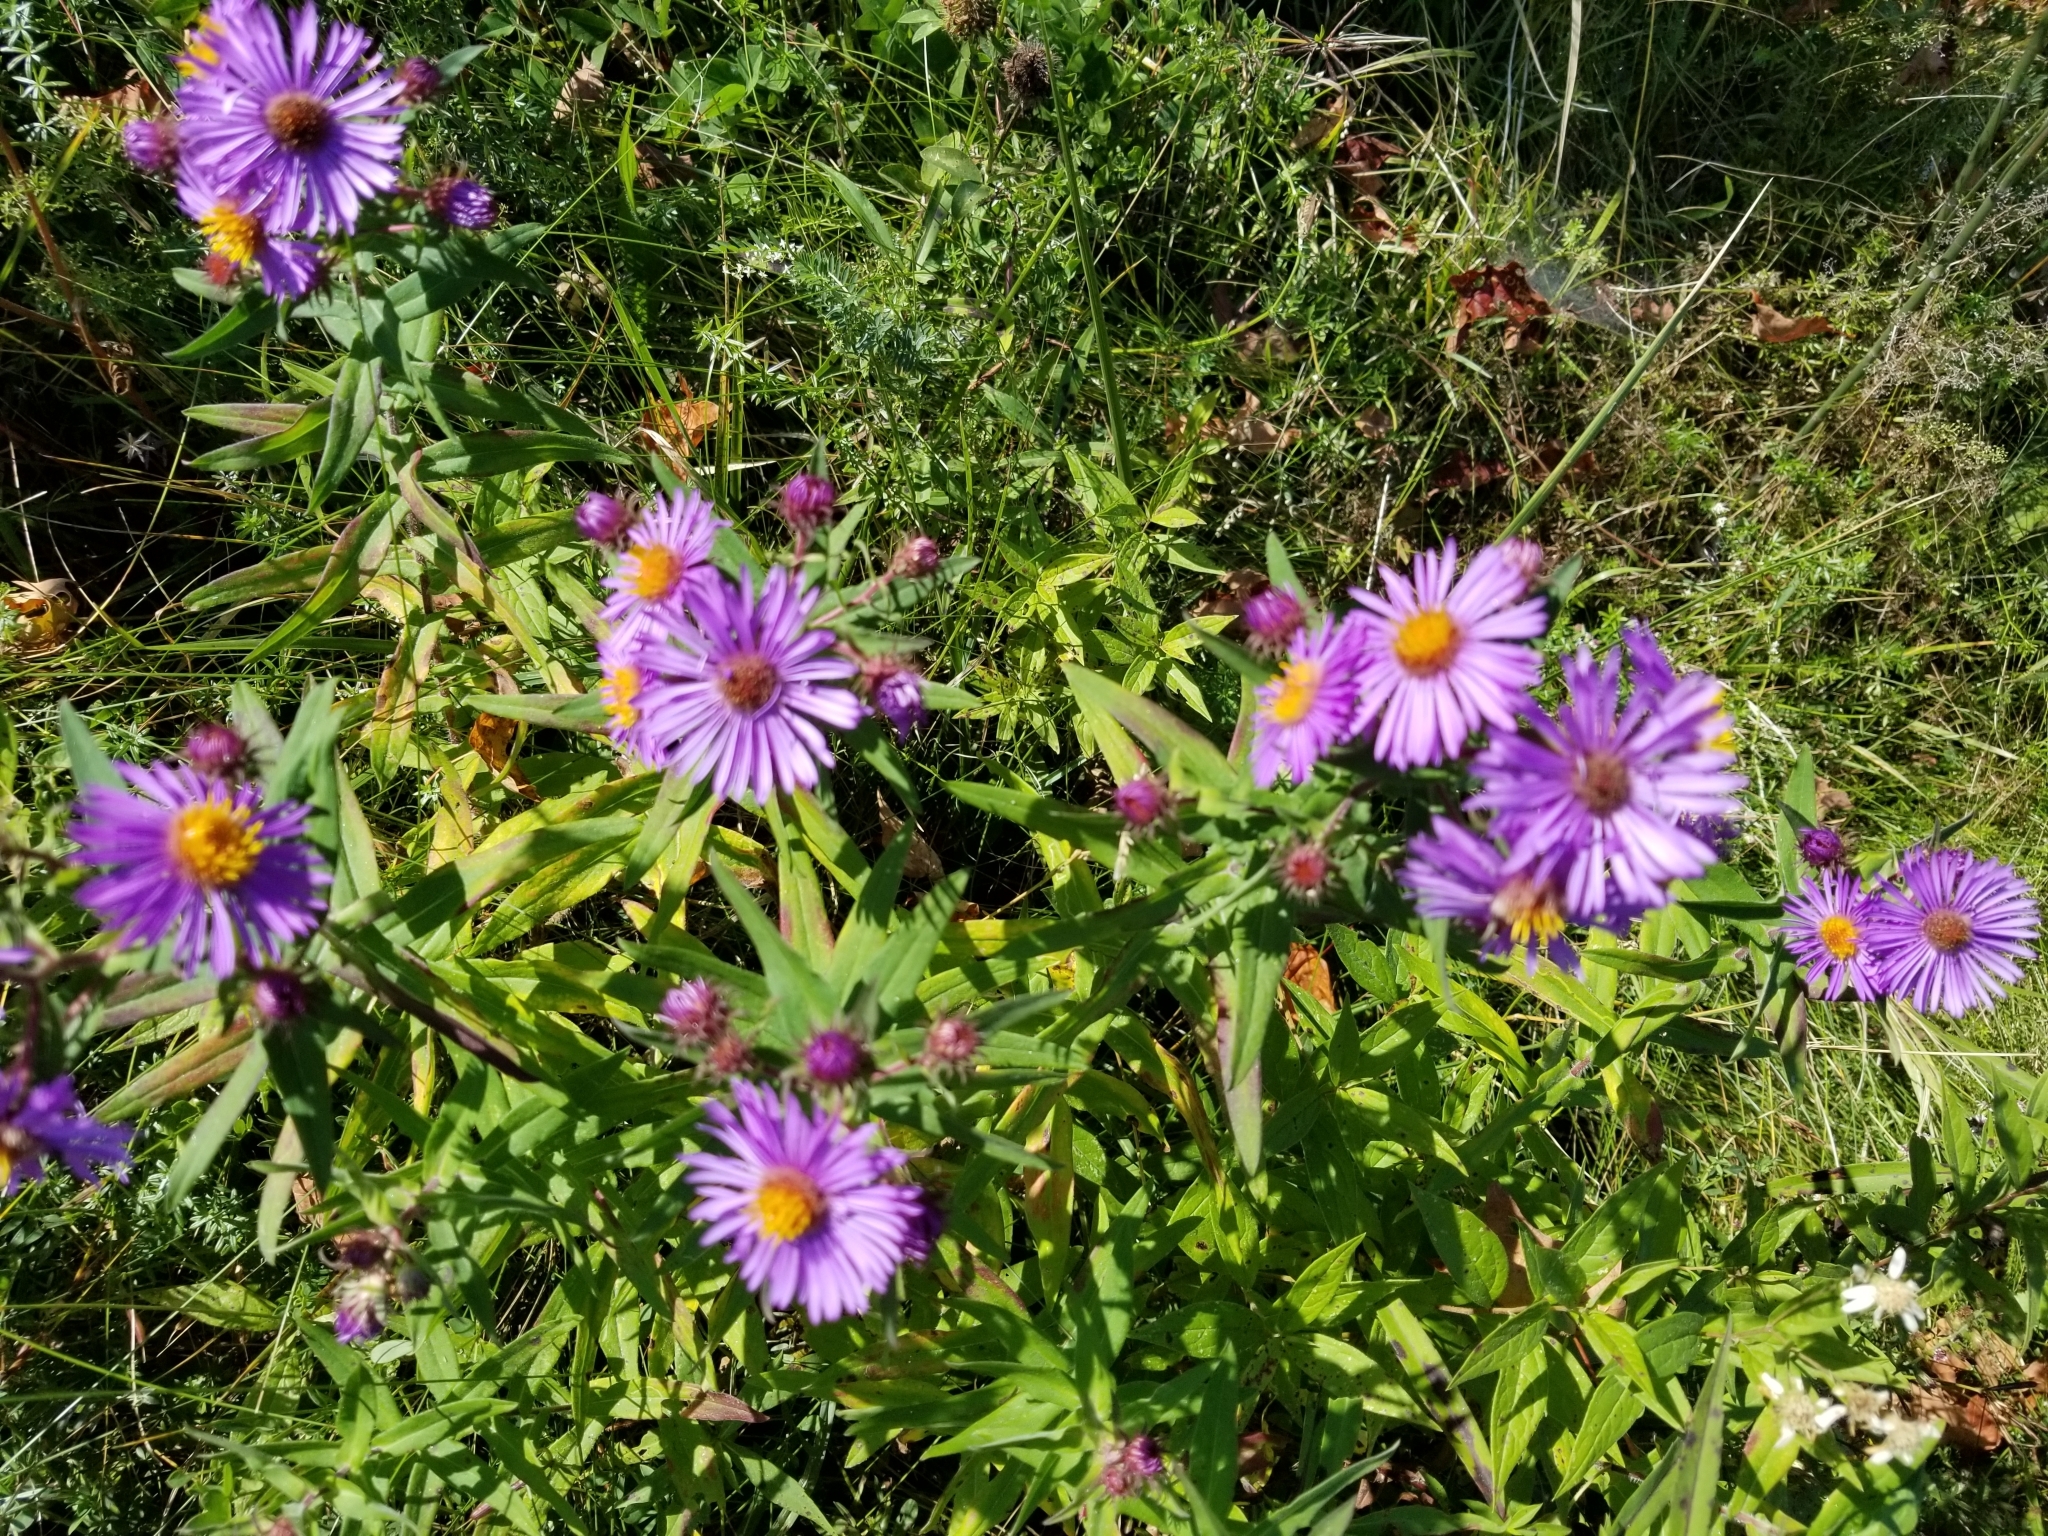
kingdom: Plantae
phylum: Tracheophyta
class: Magnoliopsida
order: Asterales
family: Asteraceae
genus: Symphyotrichum
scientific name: Symphyotrichum novae-angliae
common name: Michaelmas daisy
